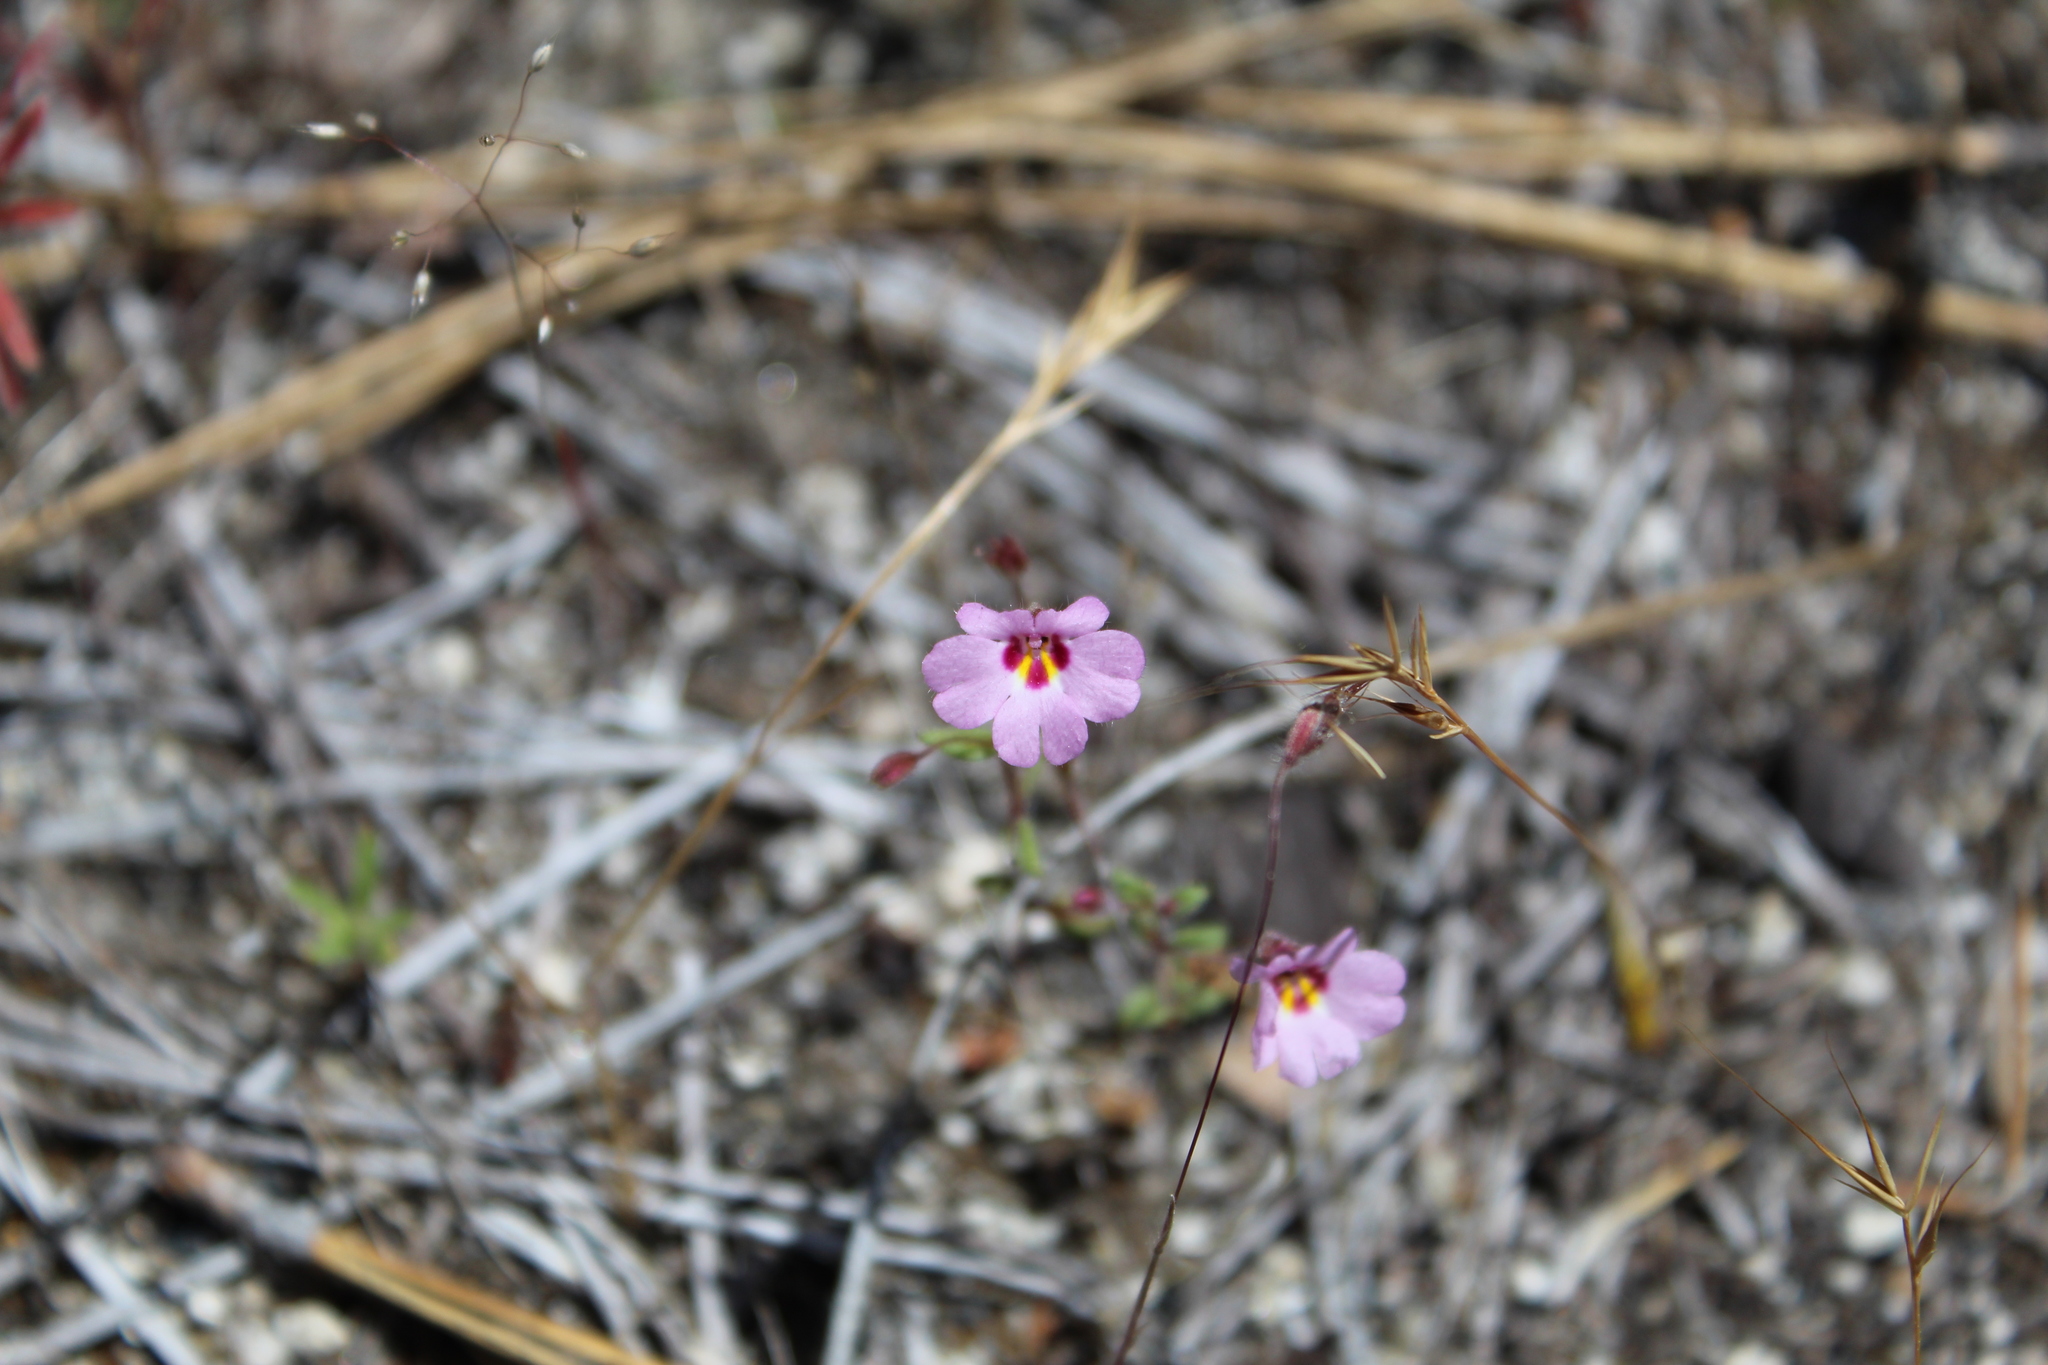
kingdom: Plantae
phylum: Tracheophyta
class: Magnoliopsida
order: Lamiales
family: Phrymaceae
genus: Erythranthe
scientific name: Erythranthe gracilipes
